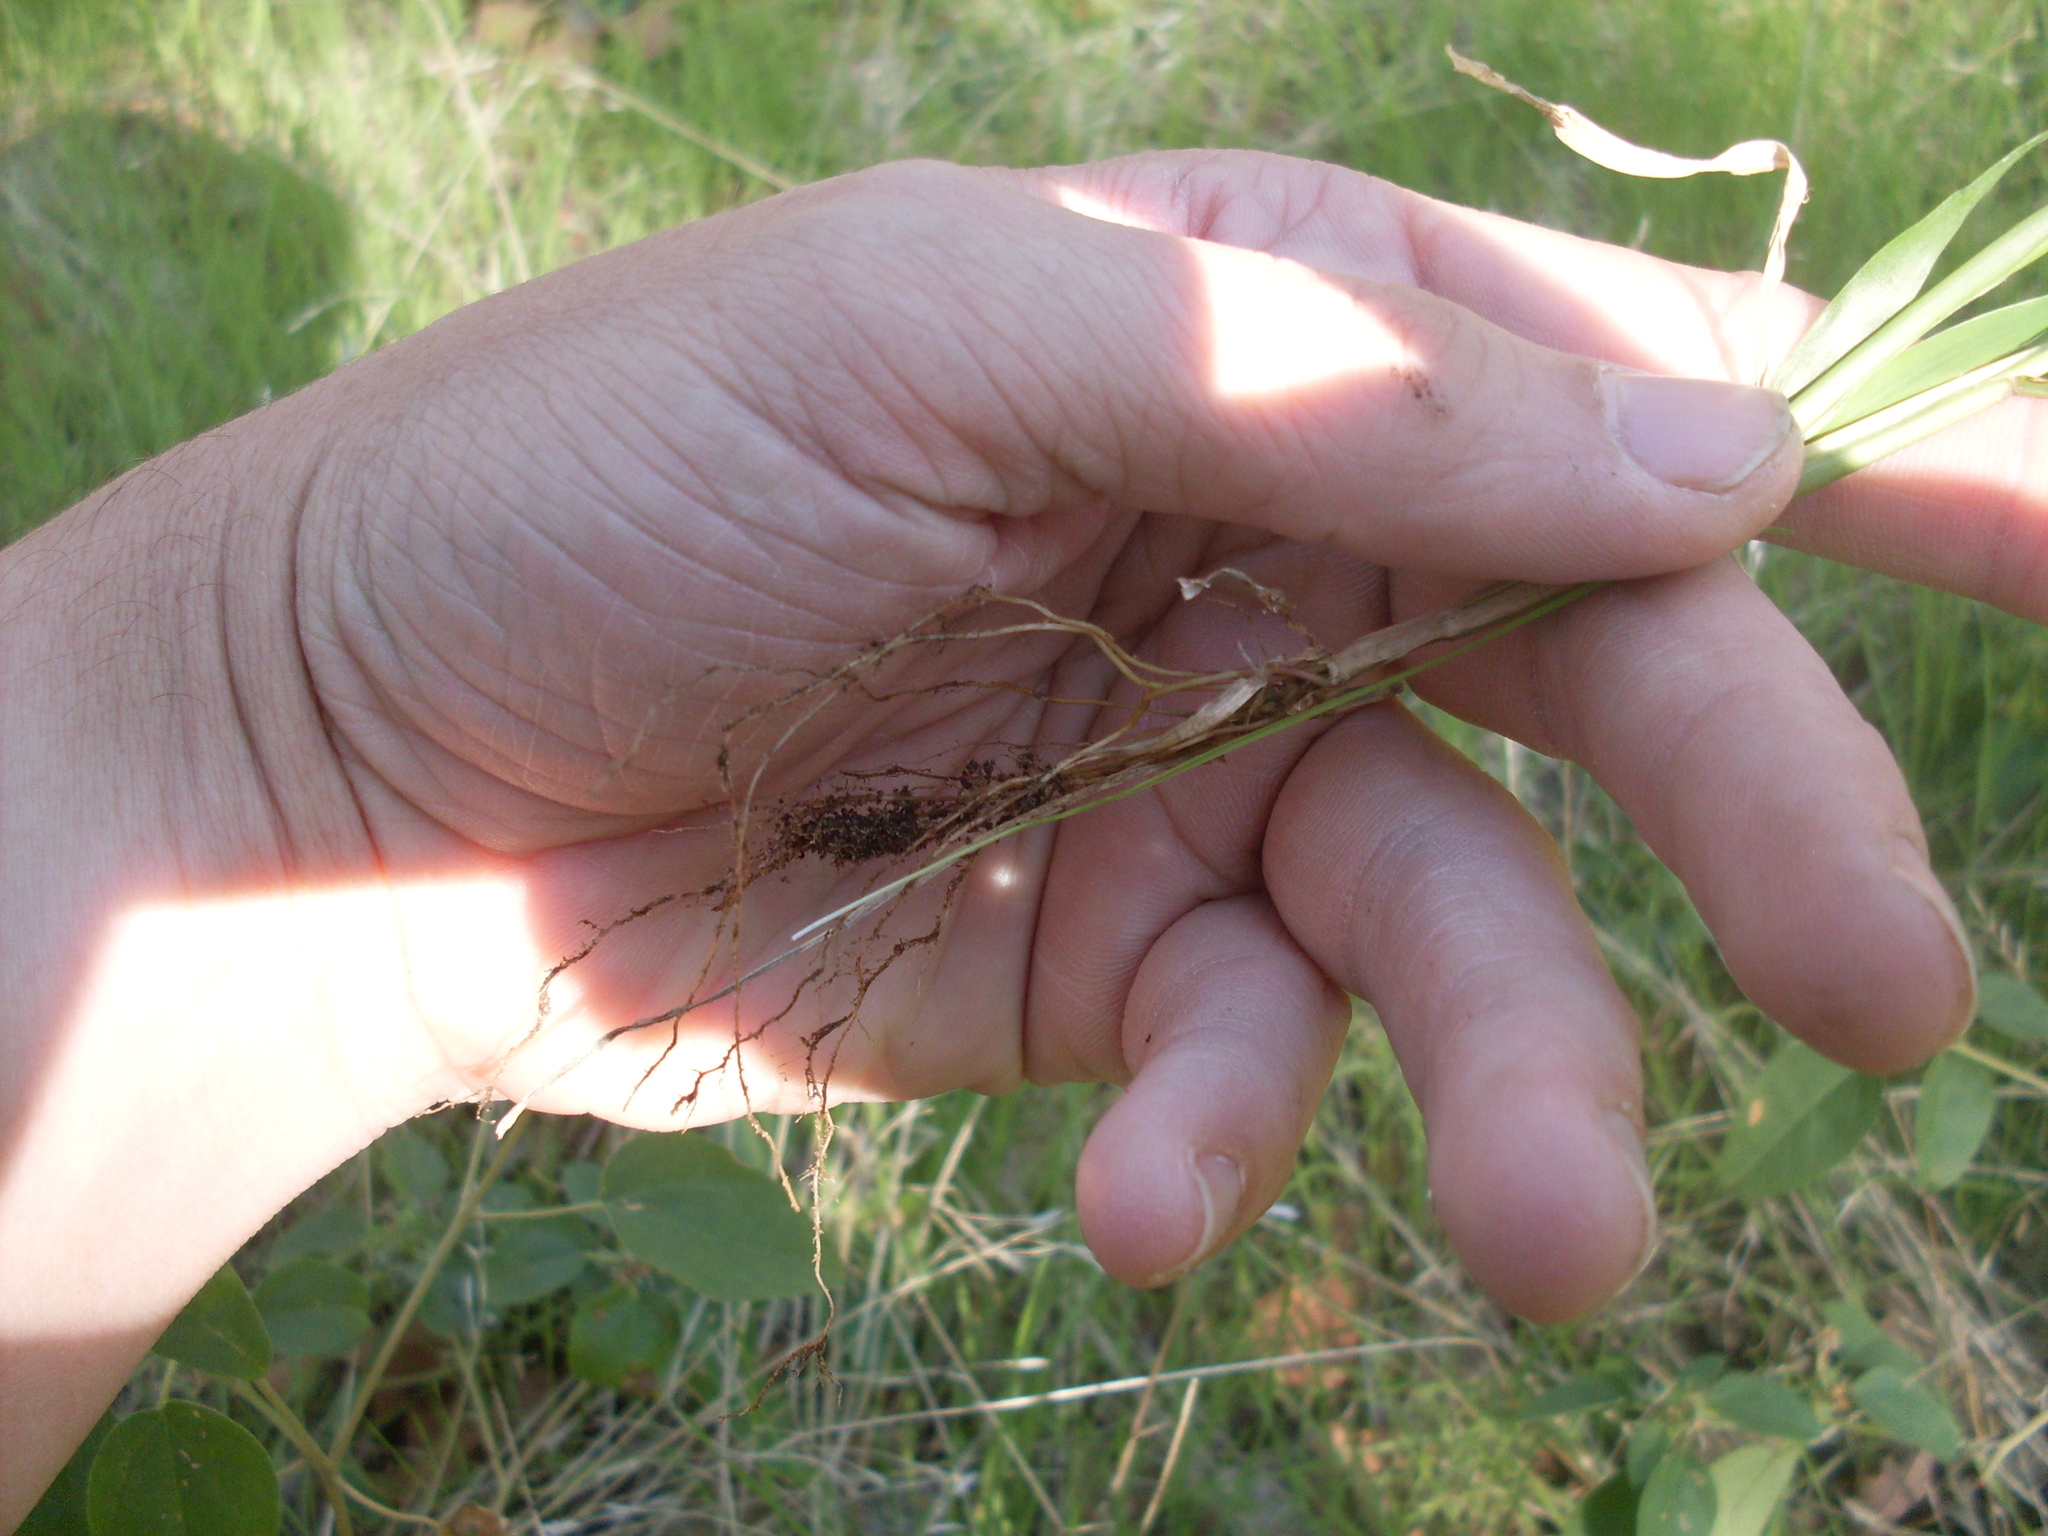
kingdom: Plantae
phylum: Tracheophyta
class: Liliopsida
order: Poales
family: Poaceae
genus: Setaria
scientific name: Setaria viridis
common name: Green bristlegrass
